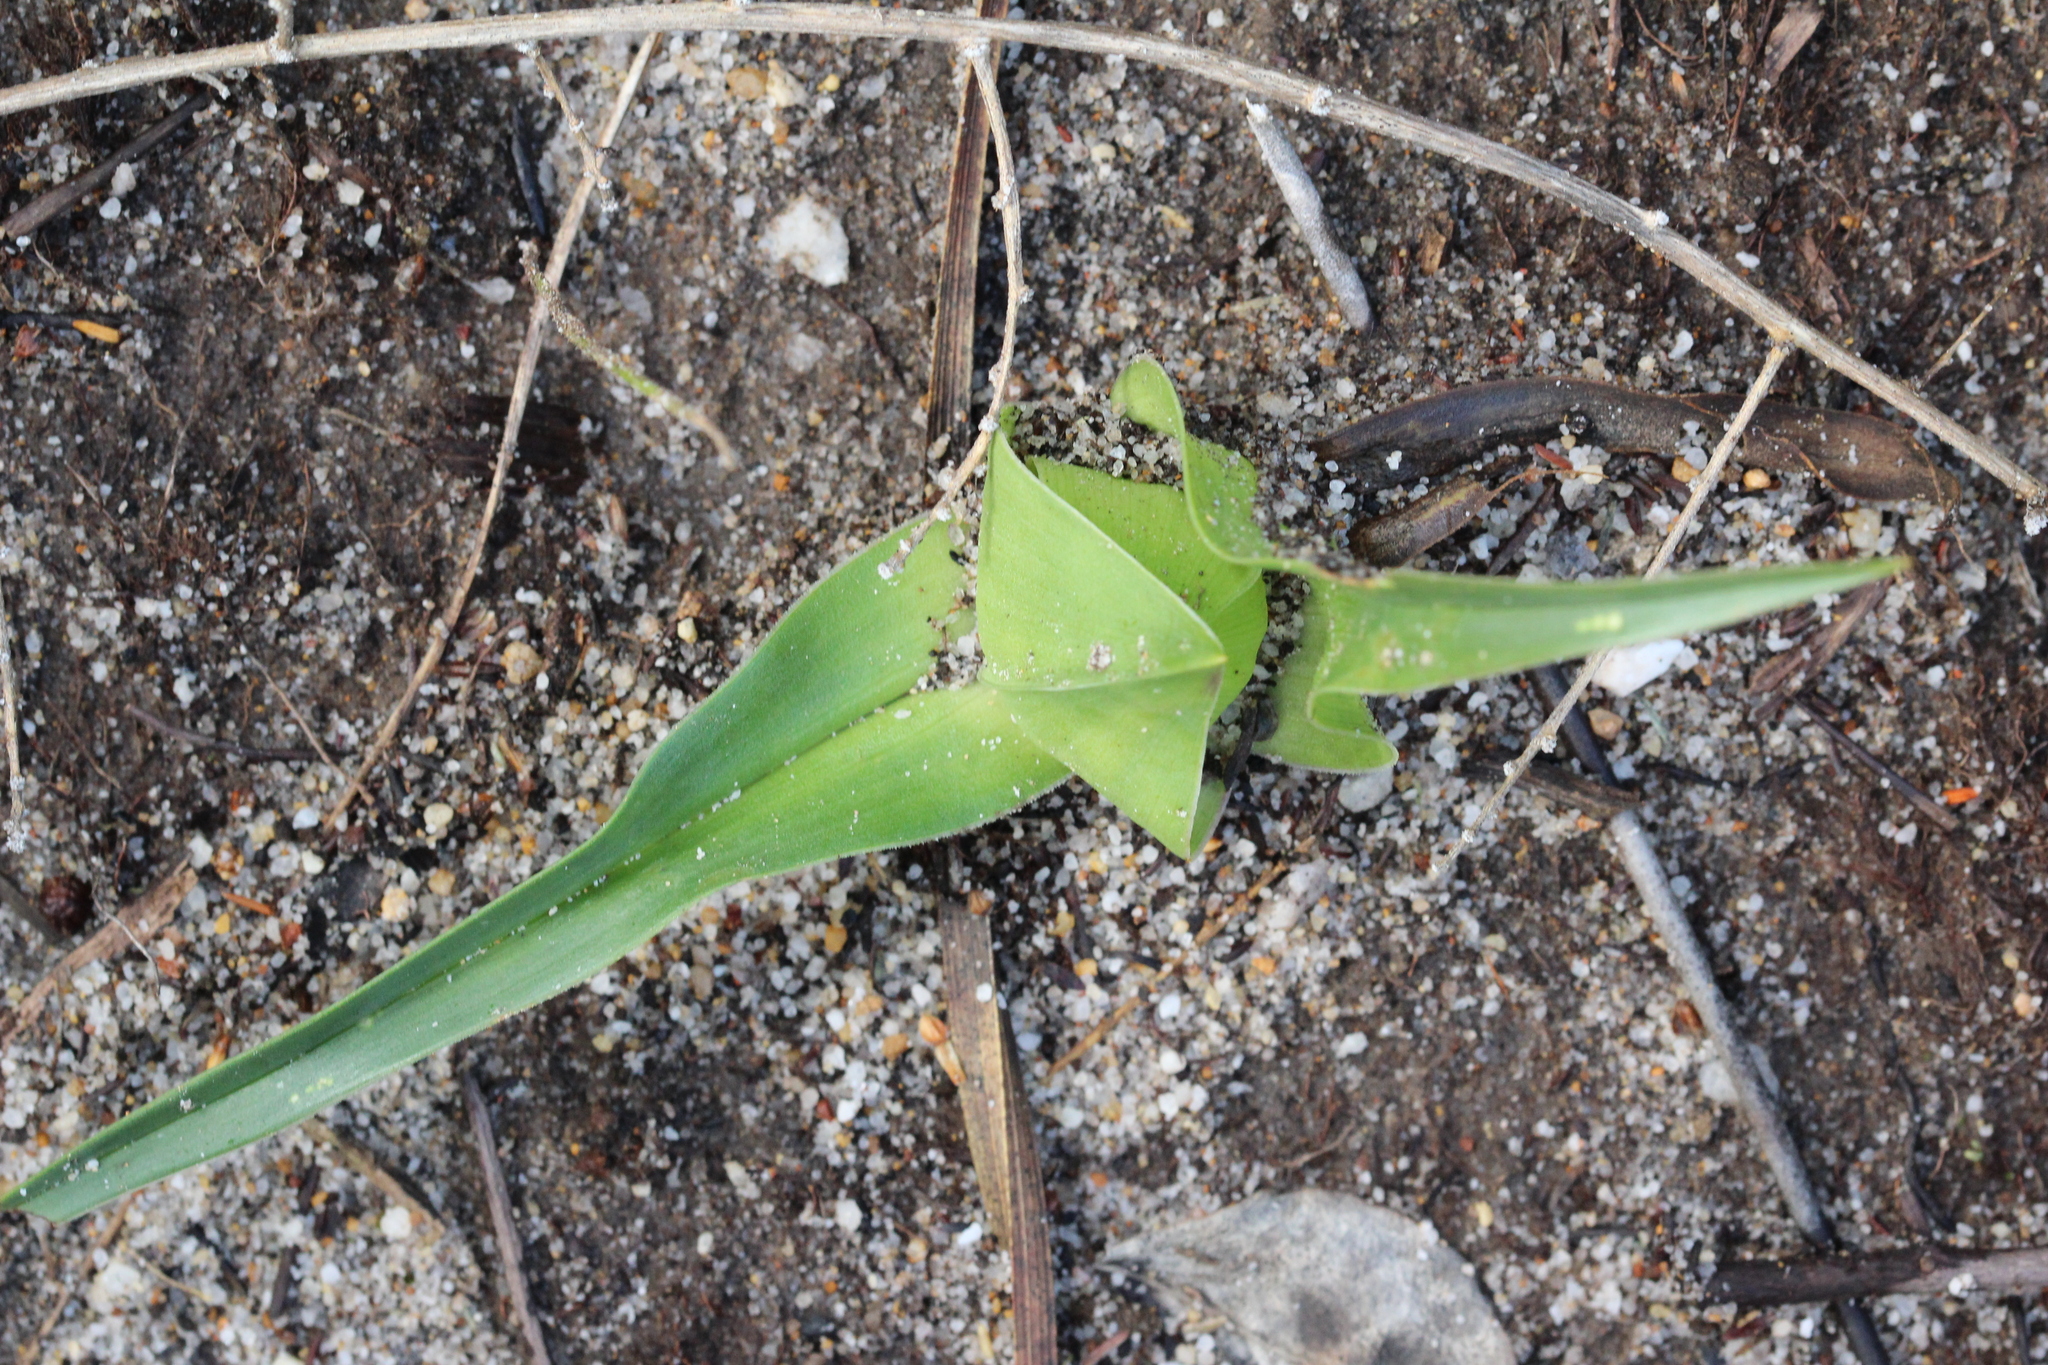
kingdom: Plantae
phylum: Tracheophyta
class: Liliopsida
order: Liliales
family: Colchicaceae
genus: Colchicum
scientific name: Colchicum eucomoides
